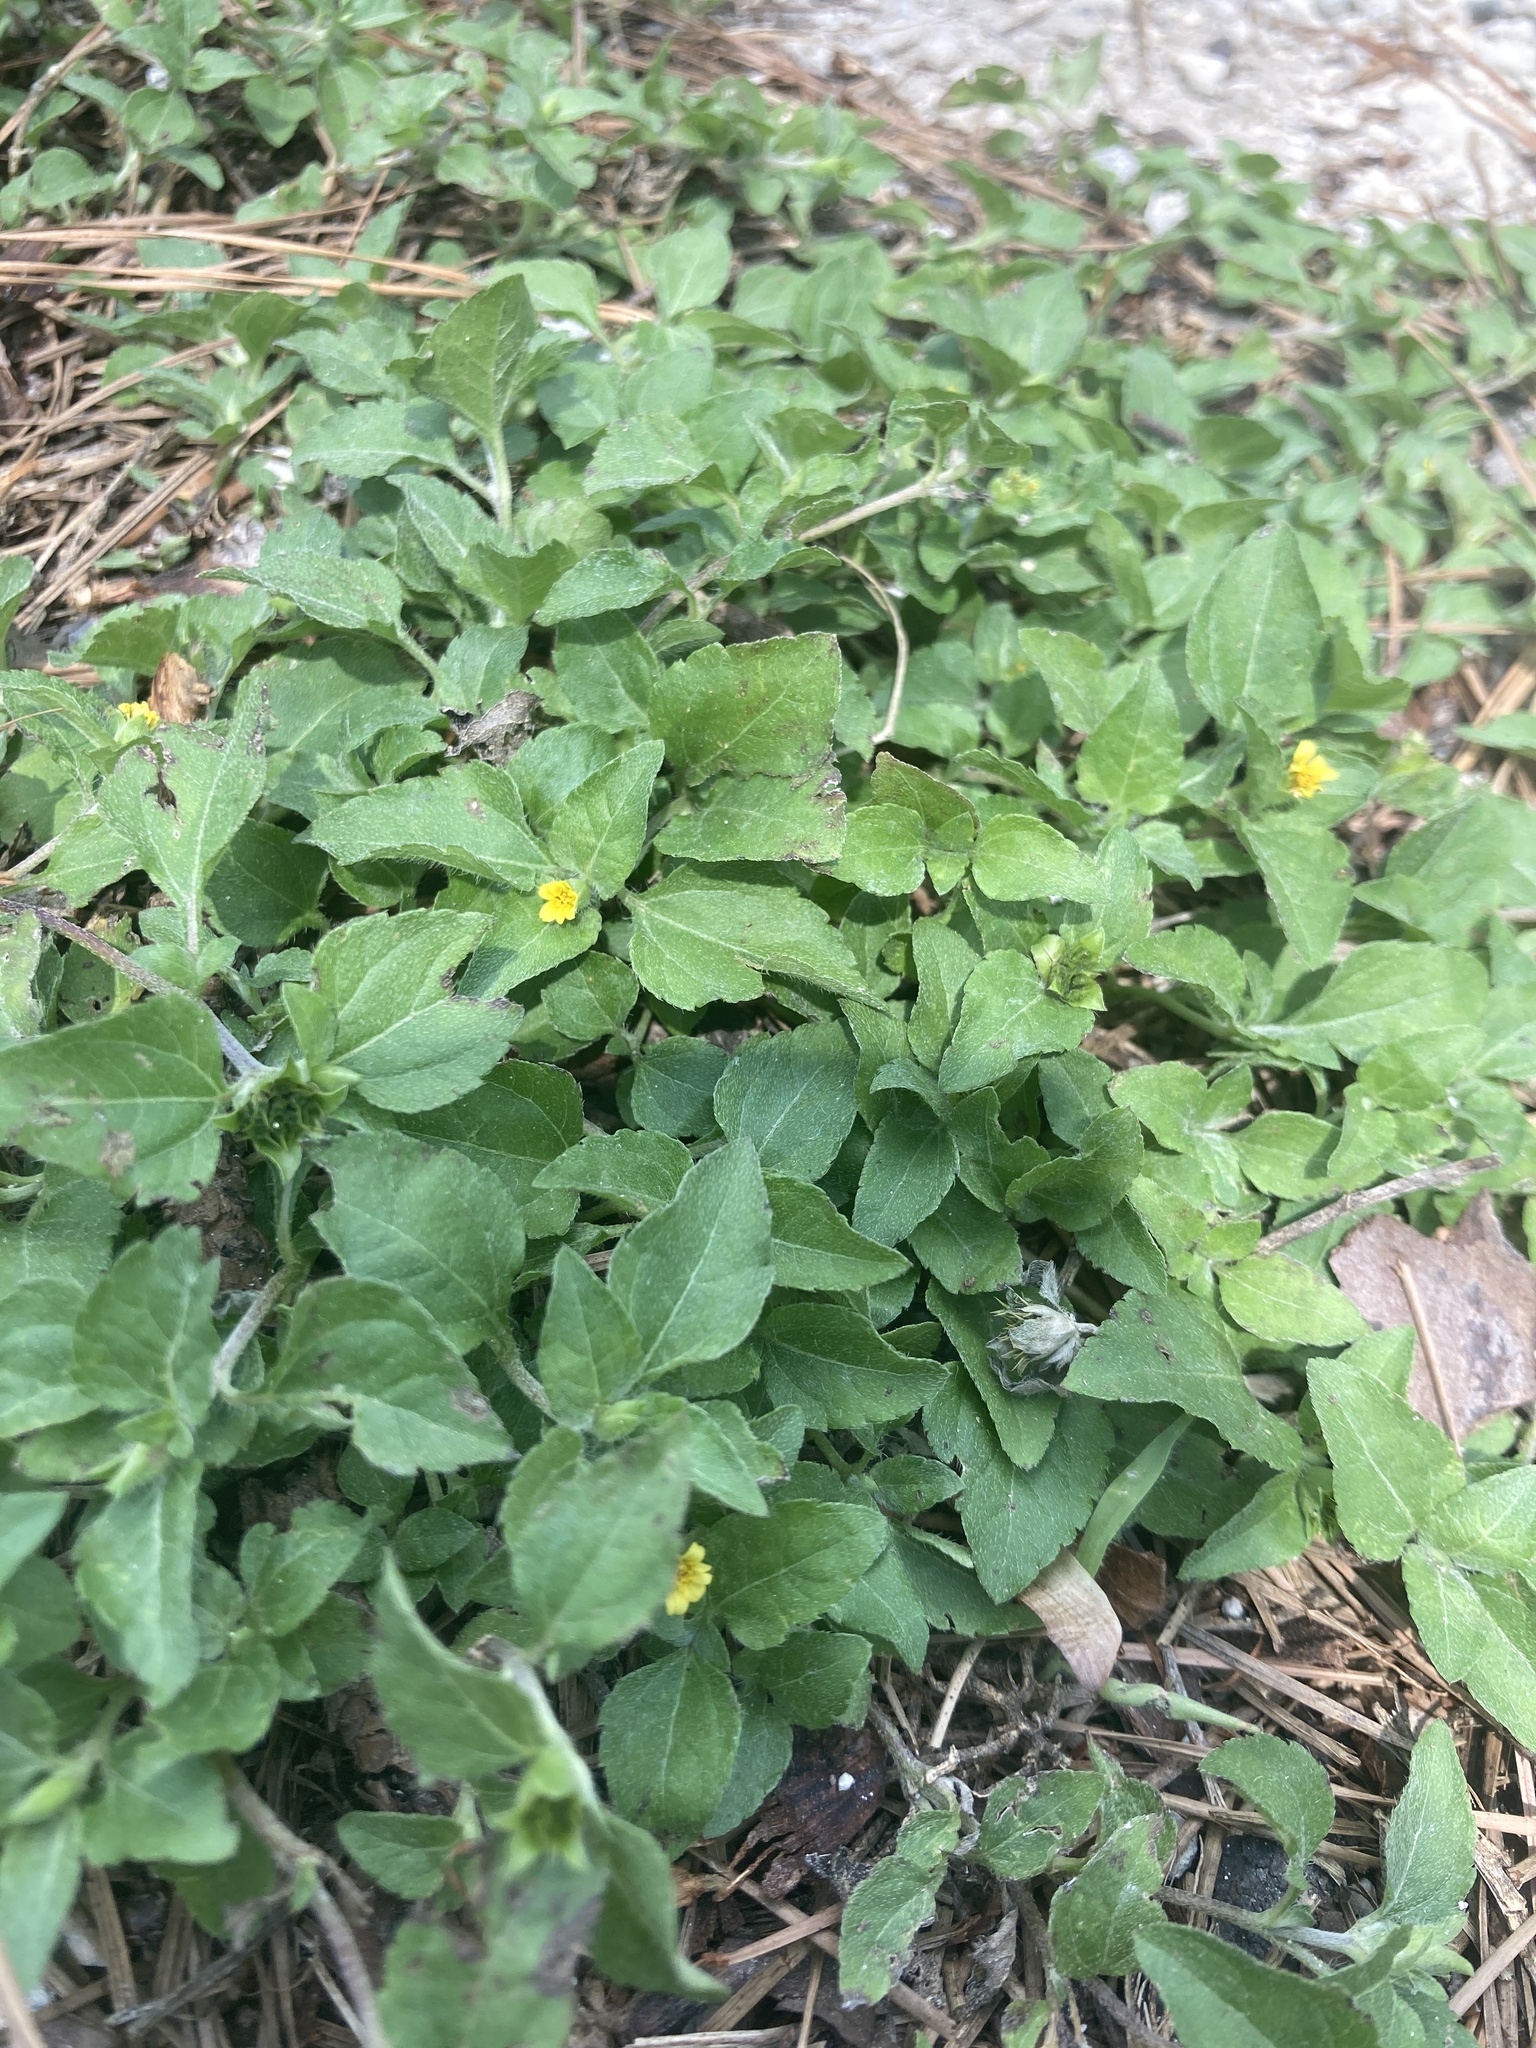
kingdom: Plantae
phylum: Tracheophyta
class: Magnoliopsida
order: Asterales
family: Asteraceae
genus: Calyptocarpus
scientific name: Calyptocarpus vialis
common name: Straggler daisy
